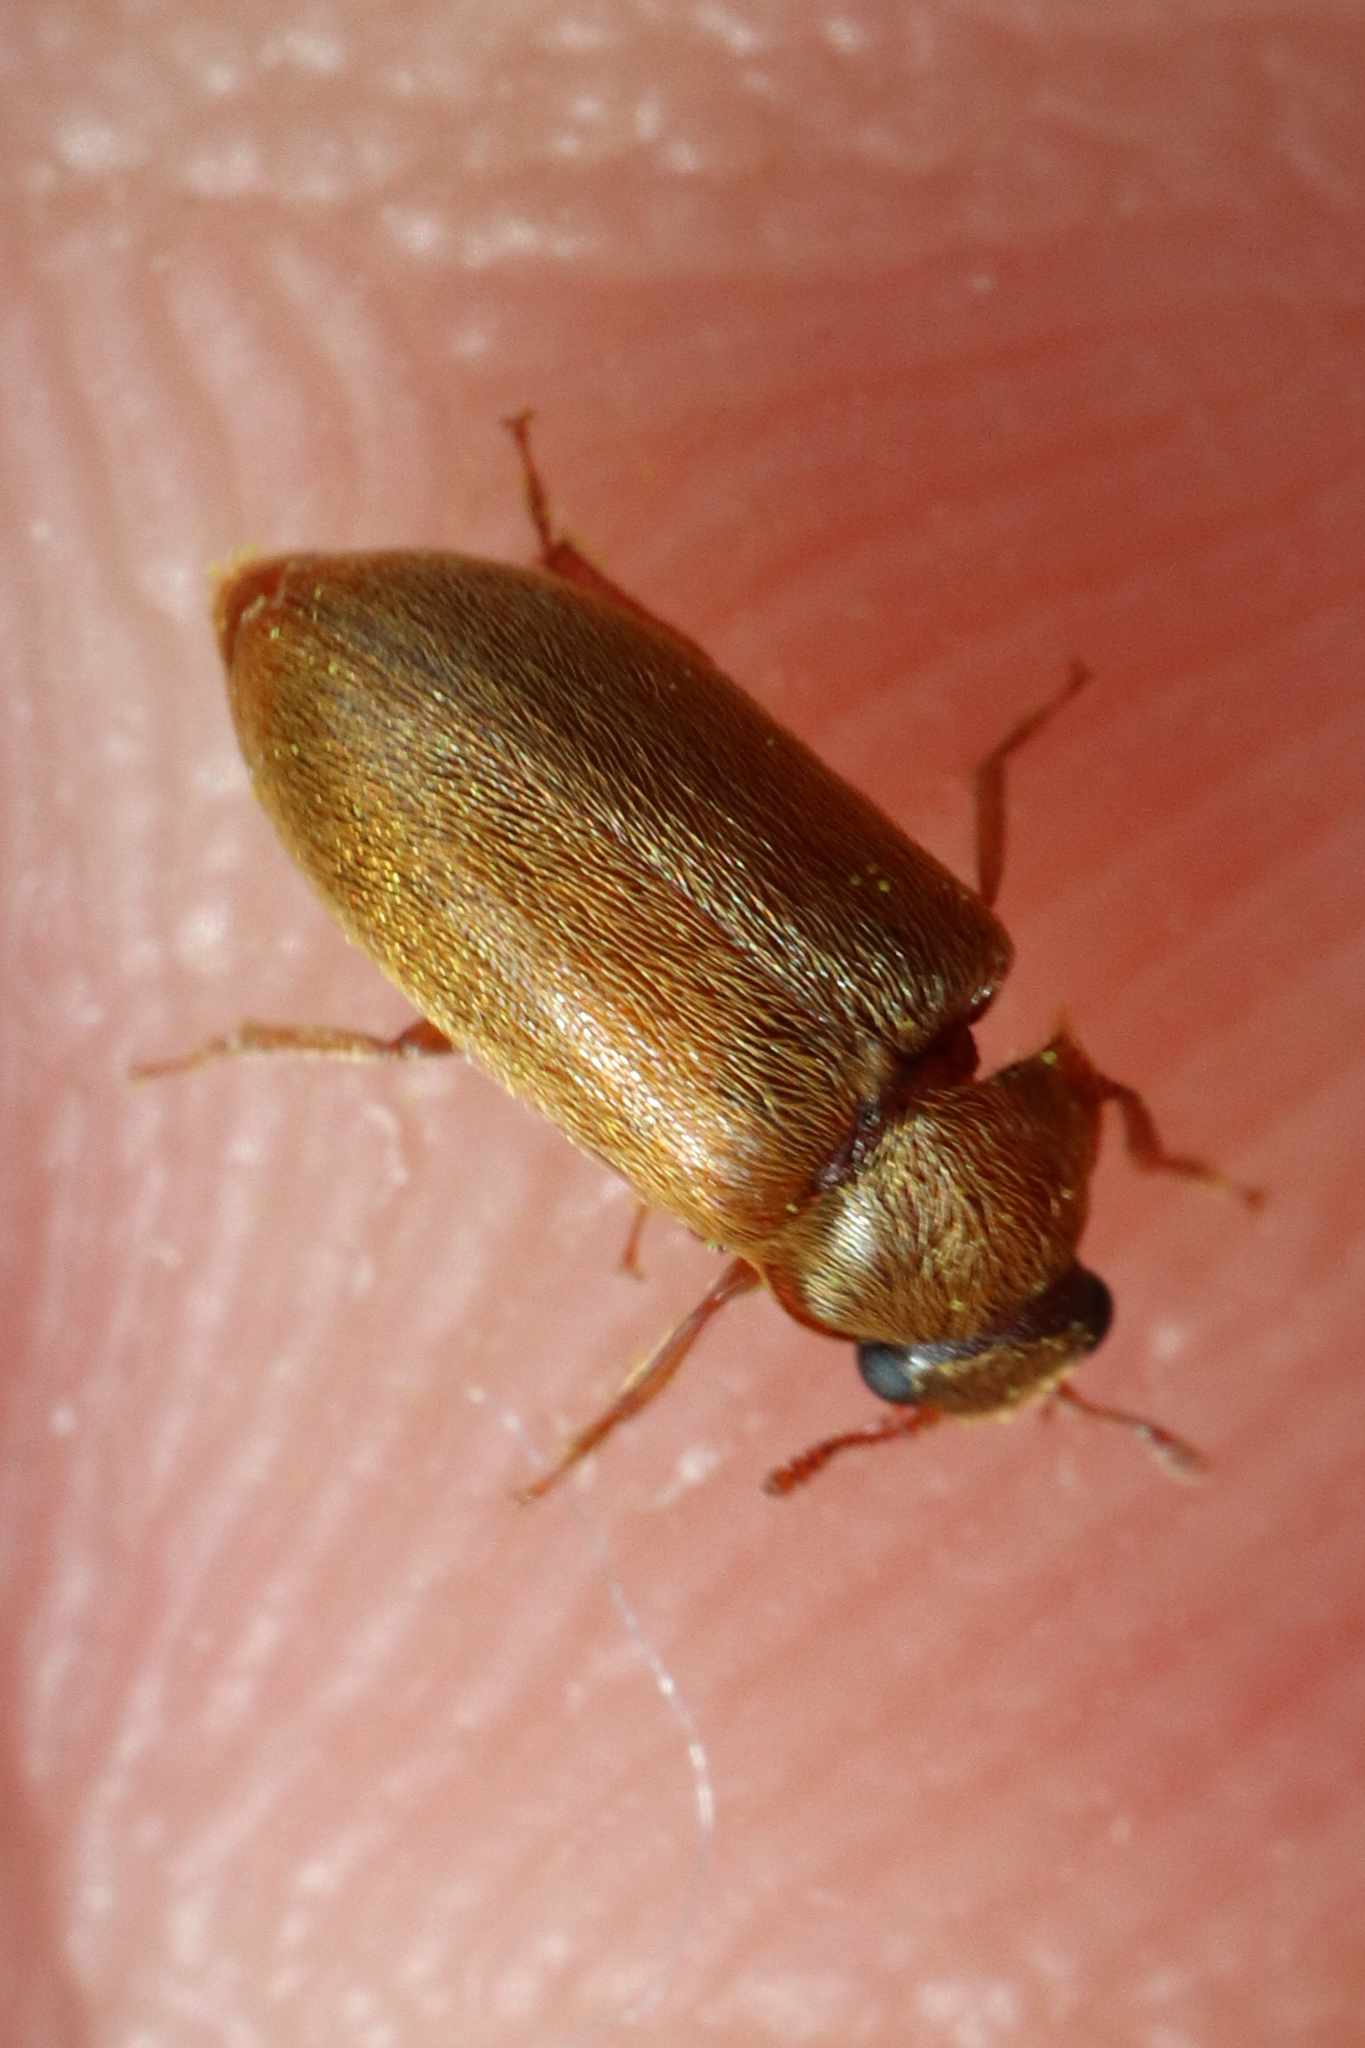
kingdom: Animalia
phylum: Arthropoda
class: Insecta
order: Coleoptera
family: Byturidae
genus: Byturus
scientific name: Byturus ochraceus
